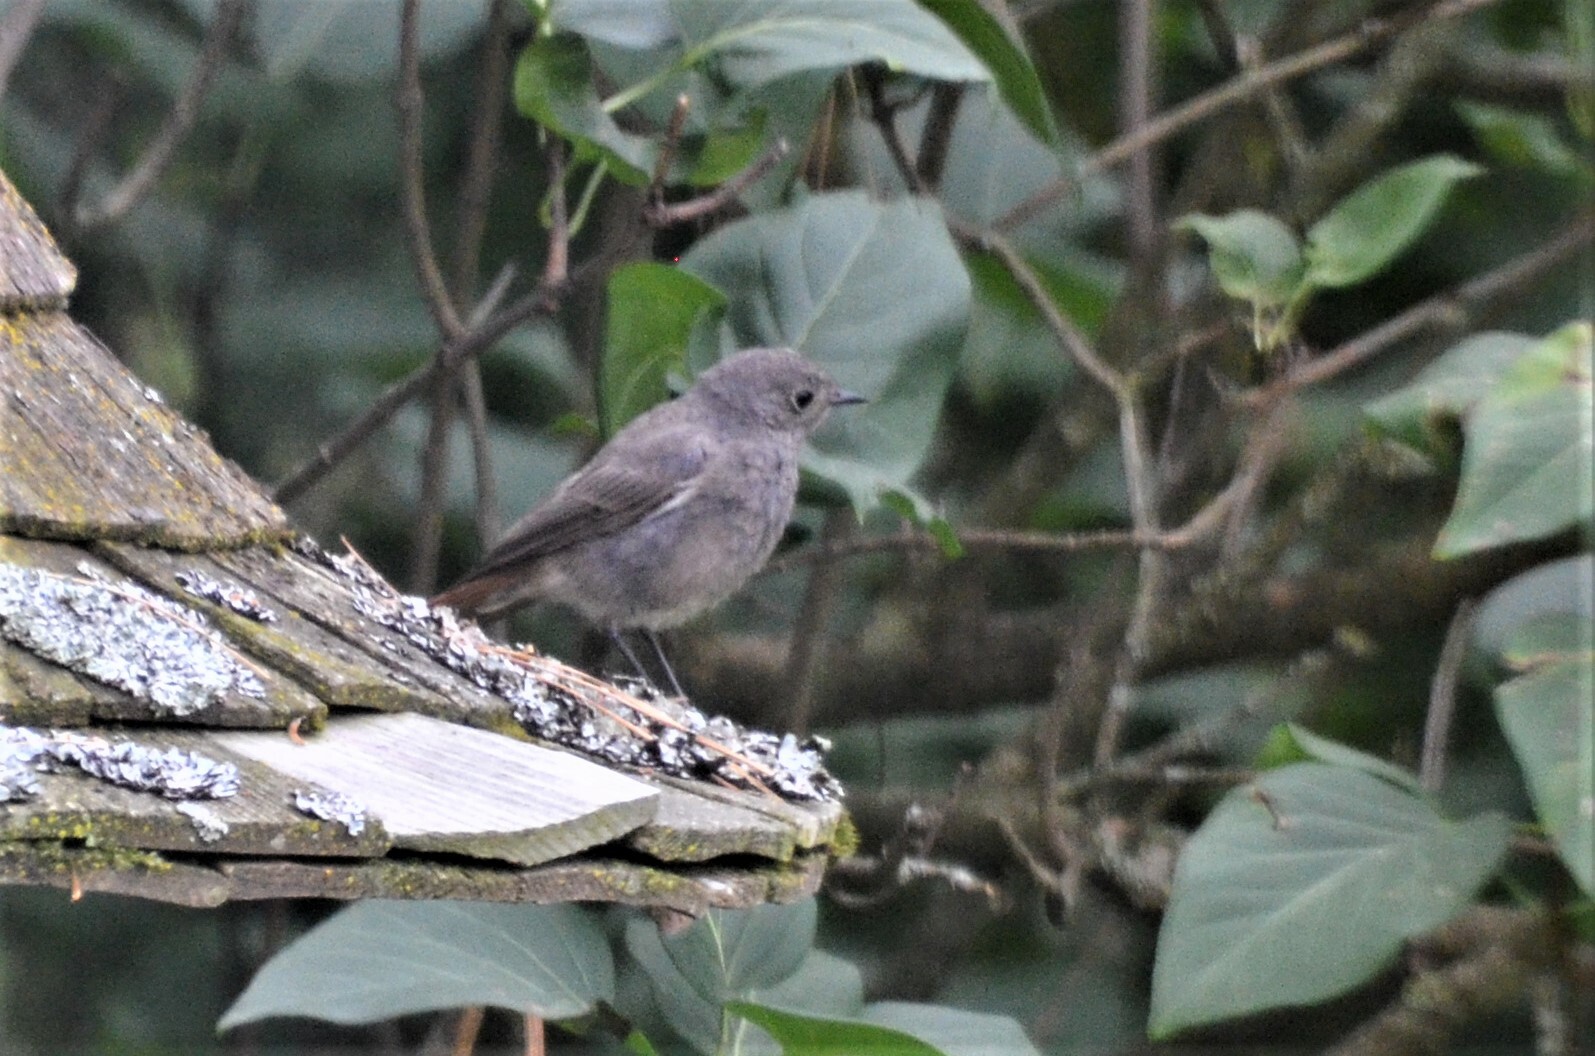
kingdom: Animalia
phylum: Chordata
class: Aves
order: Passeriformes
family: Muscicapidae
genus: Phoenicurus
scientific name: Phoenicurus ochruros
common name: Black redstart
